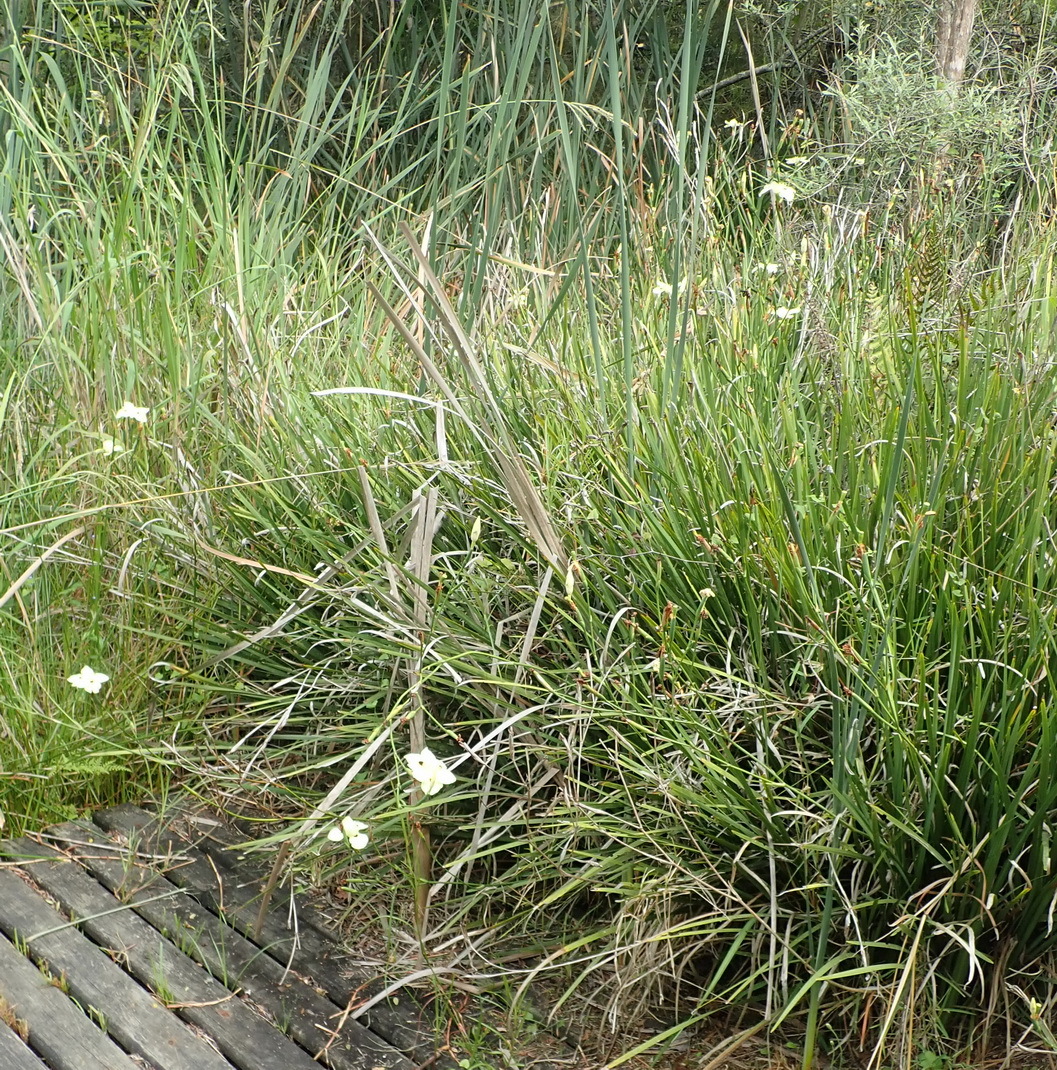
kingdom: Plantae
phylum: Tracheophyta
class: Liliopsida
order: Asparagales
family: Iridaceae
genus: Dietes
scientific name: Dietes bicolor
